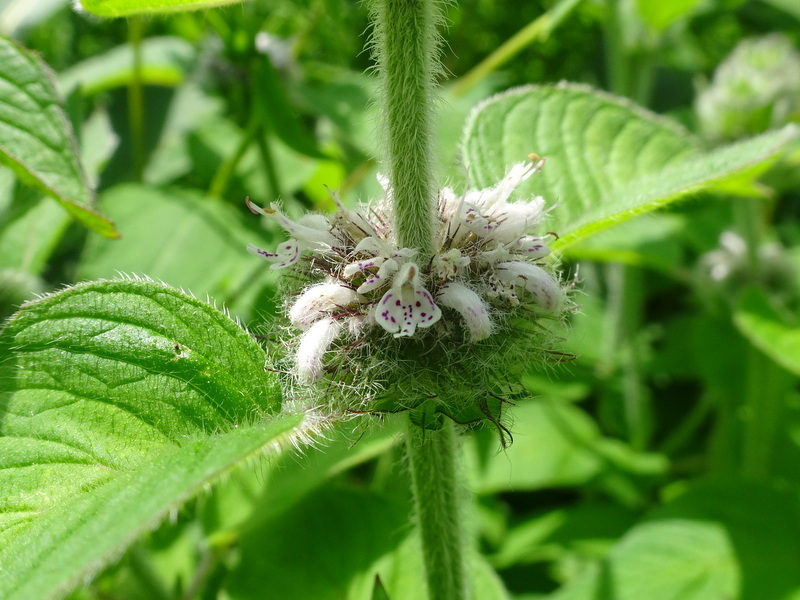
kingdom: Plantae
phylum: Tracheophyta
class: Magnoliopsida
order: Lamiales
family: Lamiaceae
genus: Blephilia
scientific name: Blephilia hirsuta
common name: Hairy blephilia
